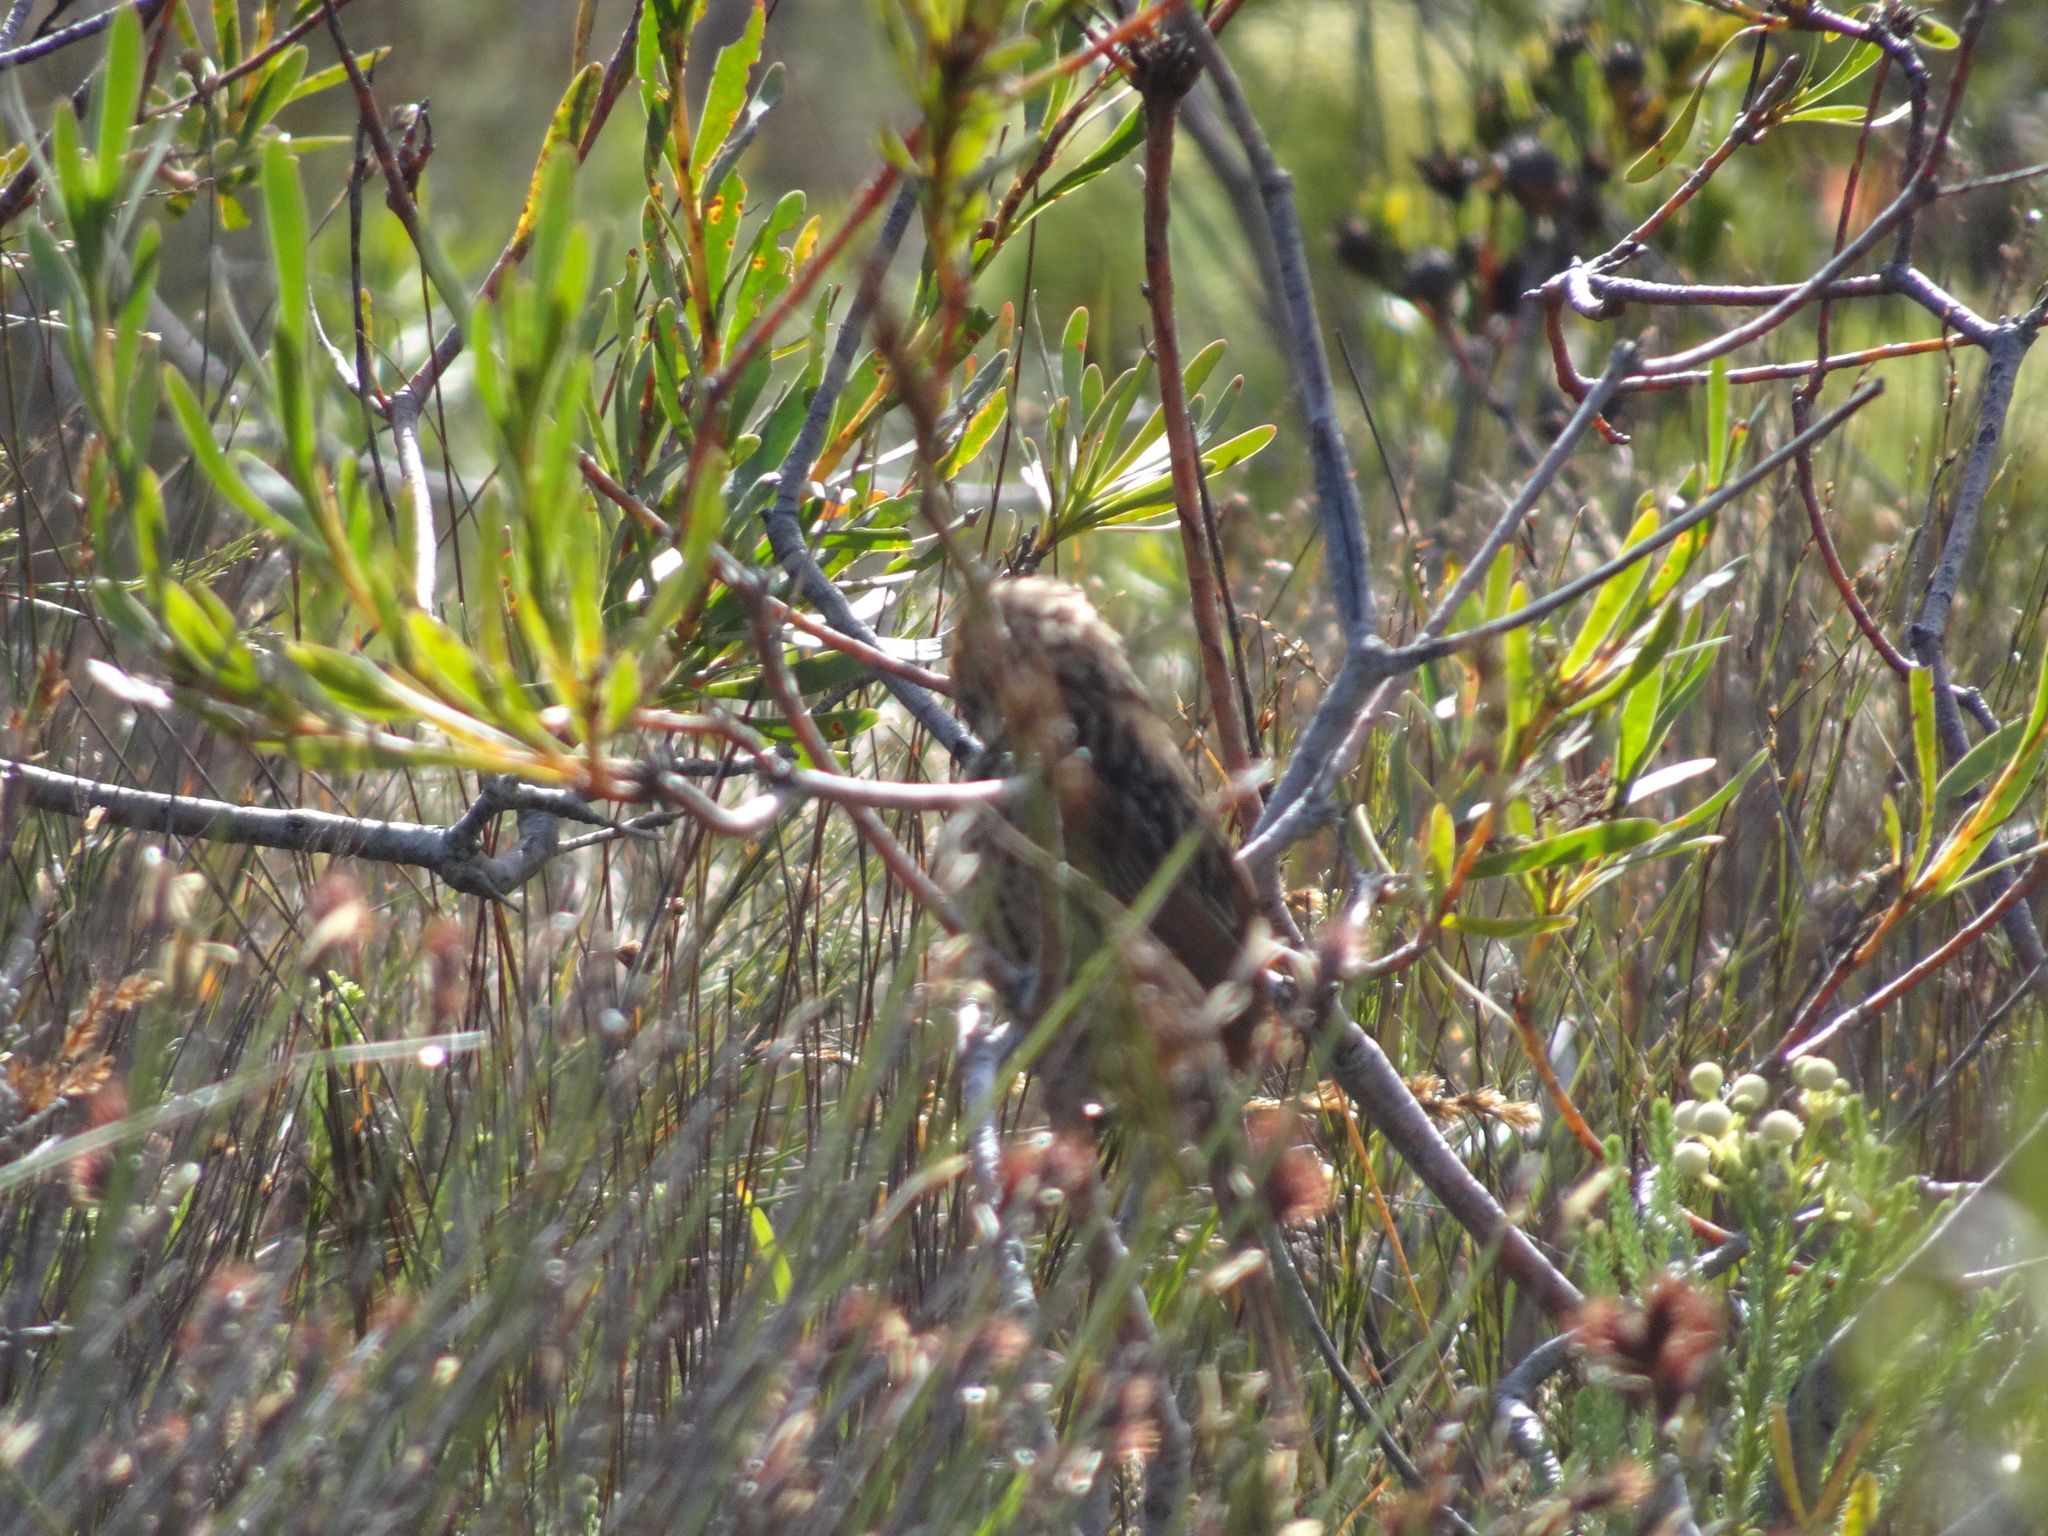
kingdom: Animalia
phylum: Chordata
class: Aves
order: Passeriformes
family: Macrosphenidae
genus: Sphenoeacus
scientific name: Sphenoeacus afer
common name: Cape grassbird
